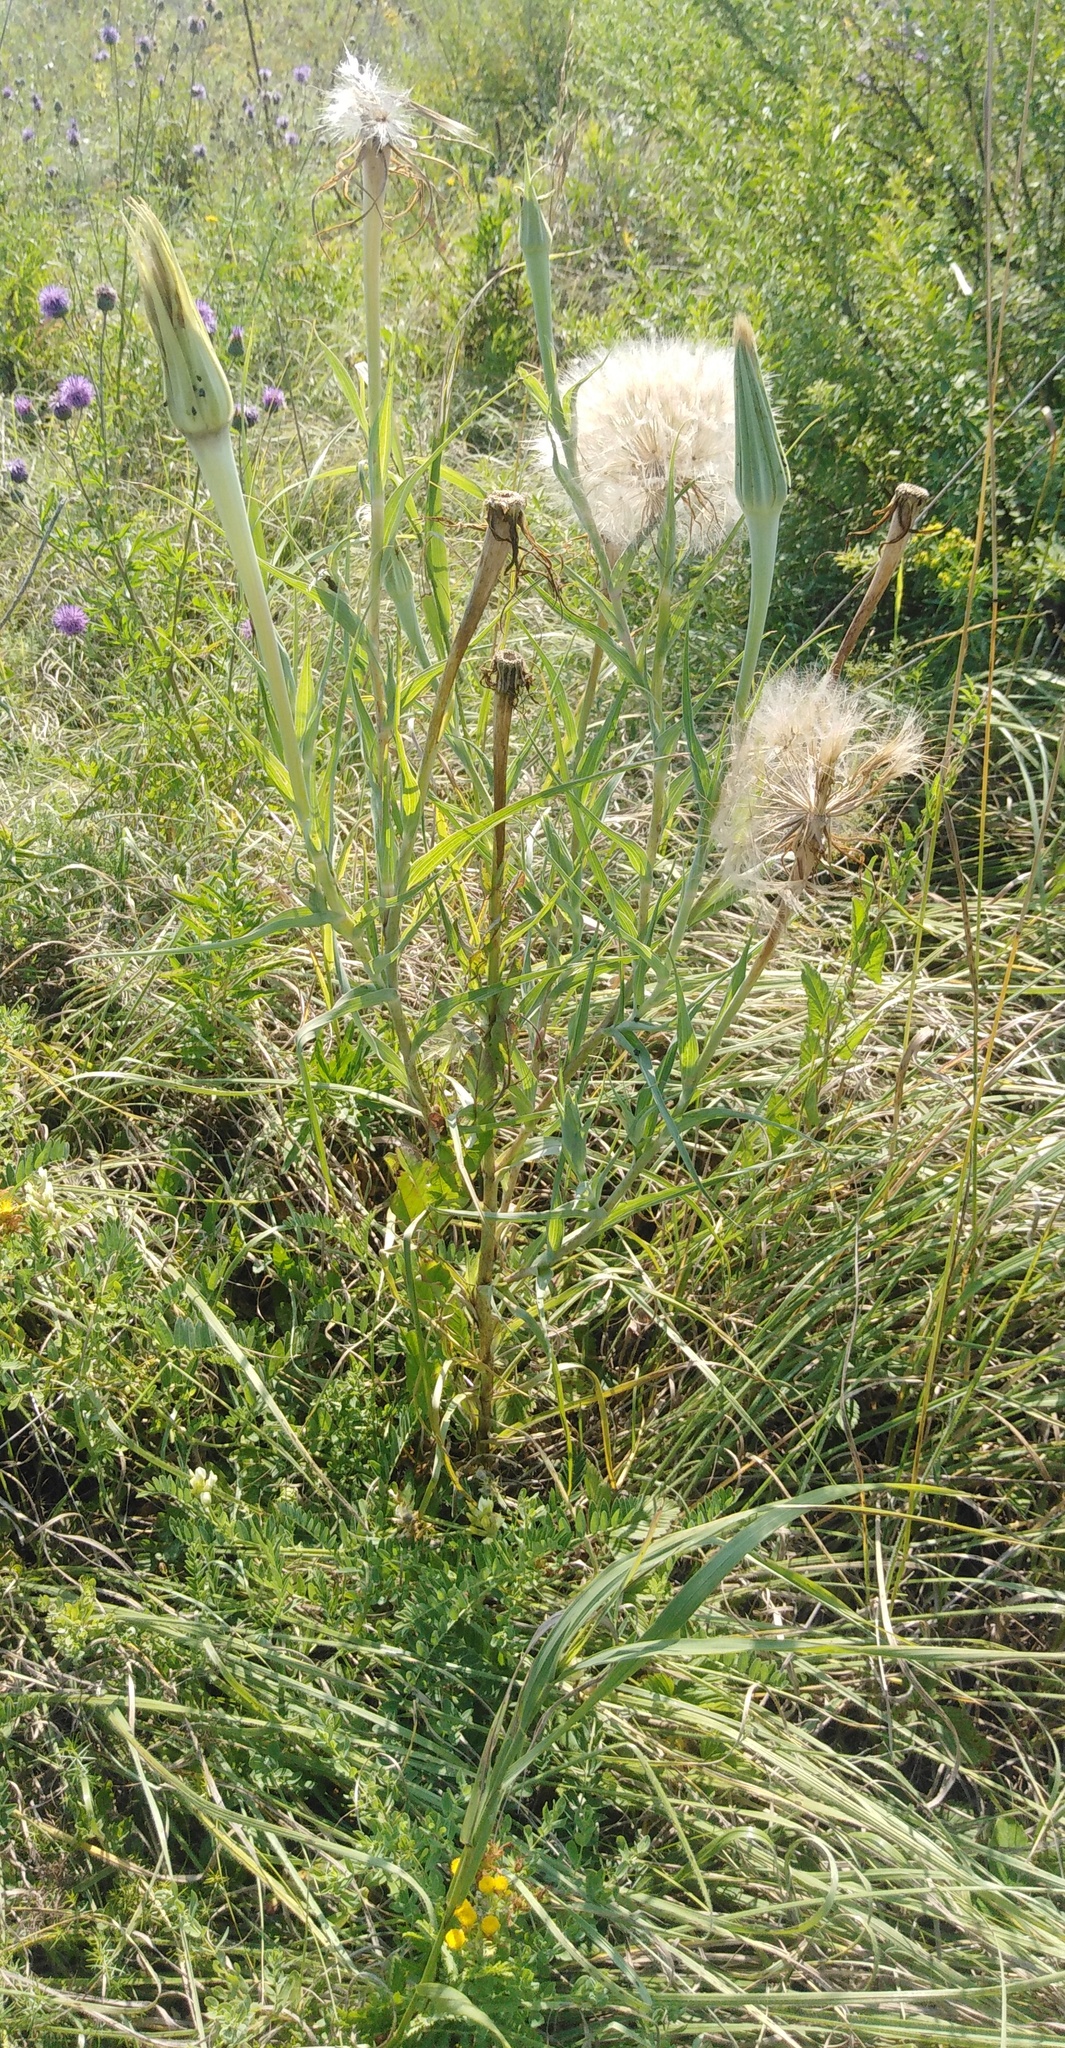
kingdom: Plantae
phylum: Tracheophyta
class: Magnoliopsida
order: Asterales
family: Asteraceae
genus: Tragopogon
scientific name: Tragopogon dubius
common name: Yellow salsify
